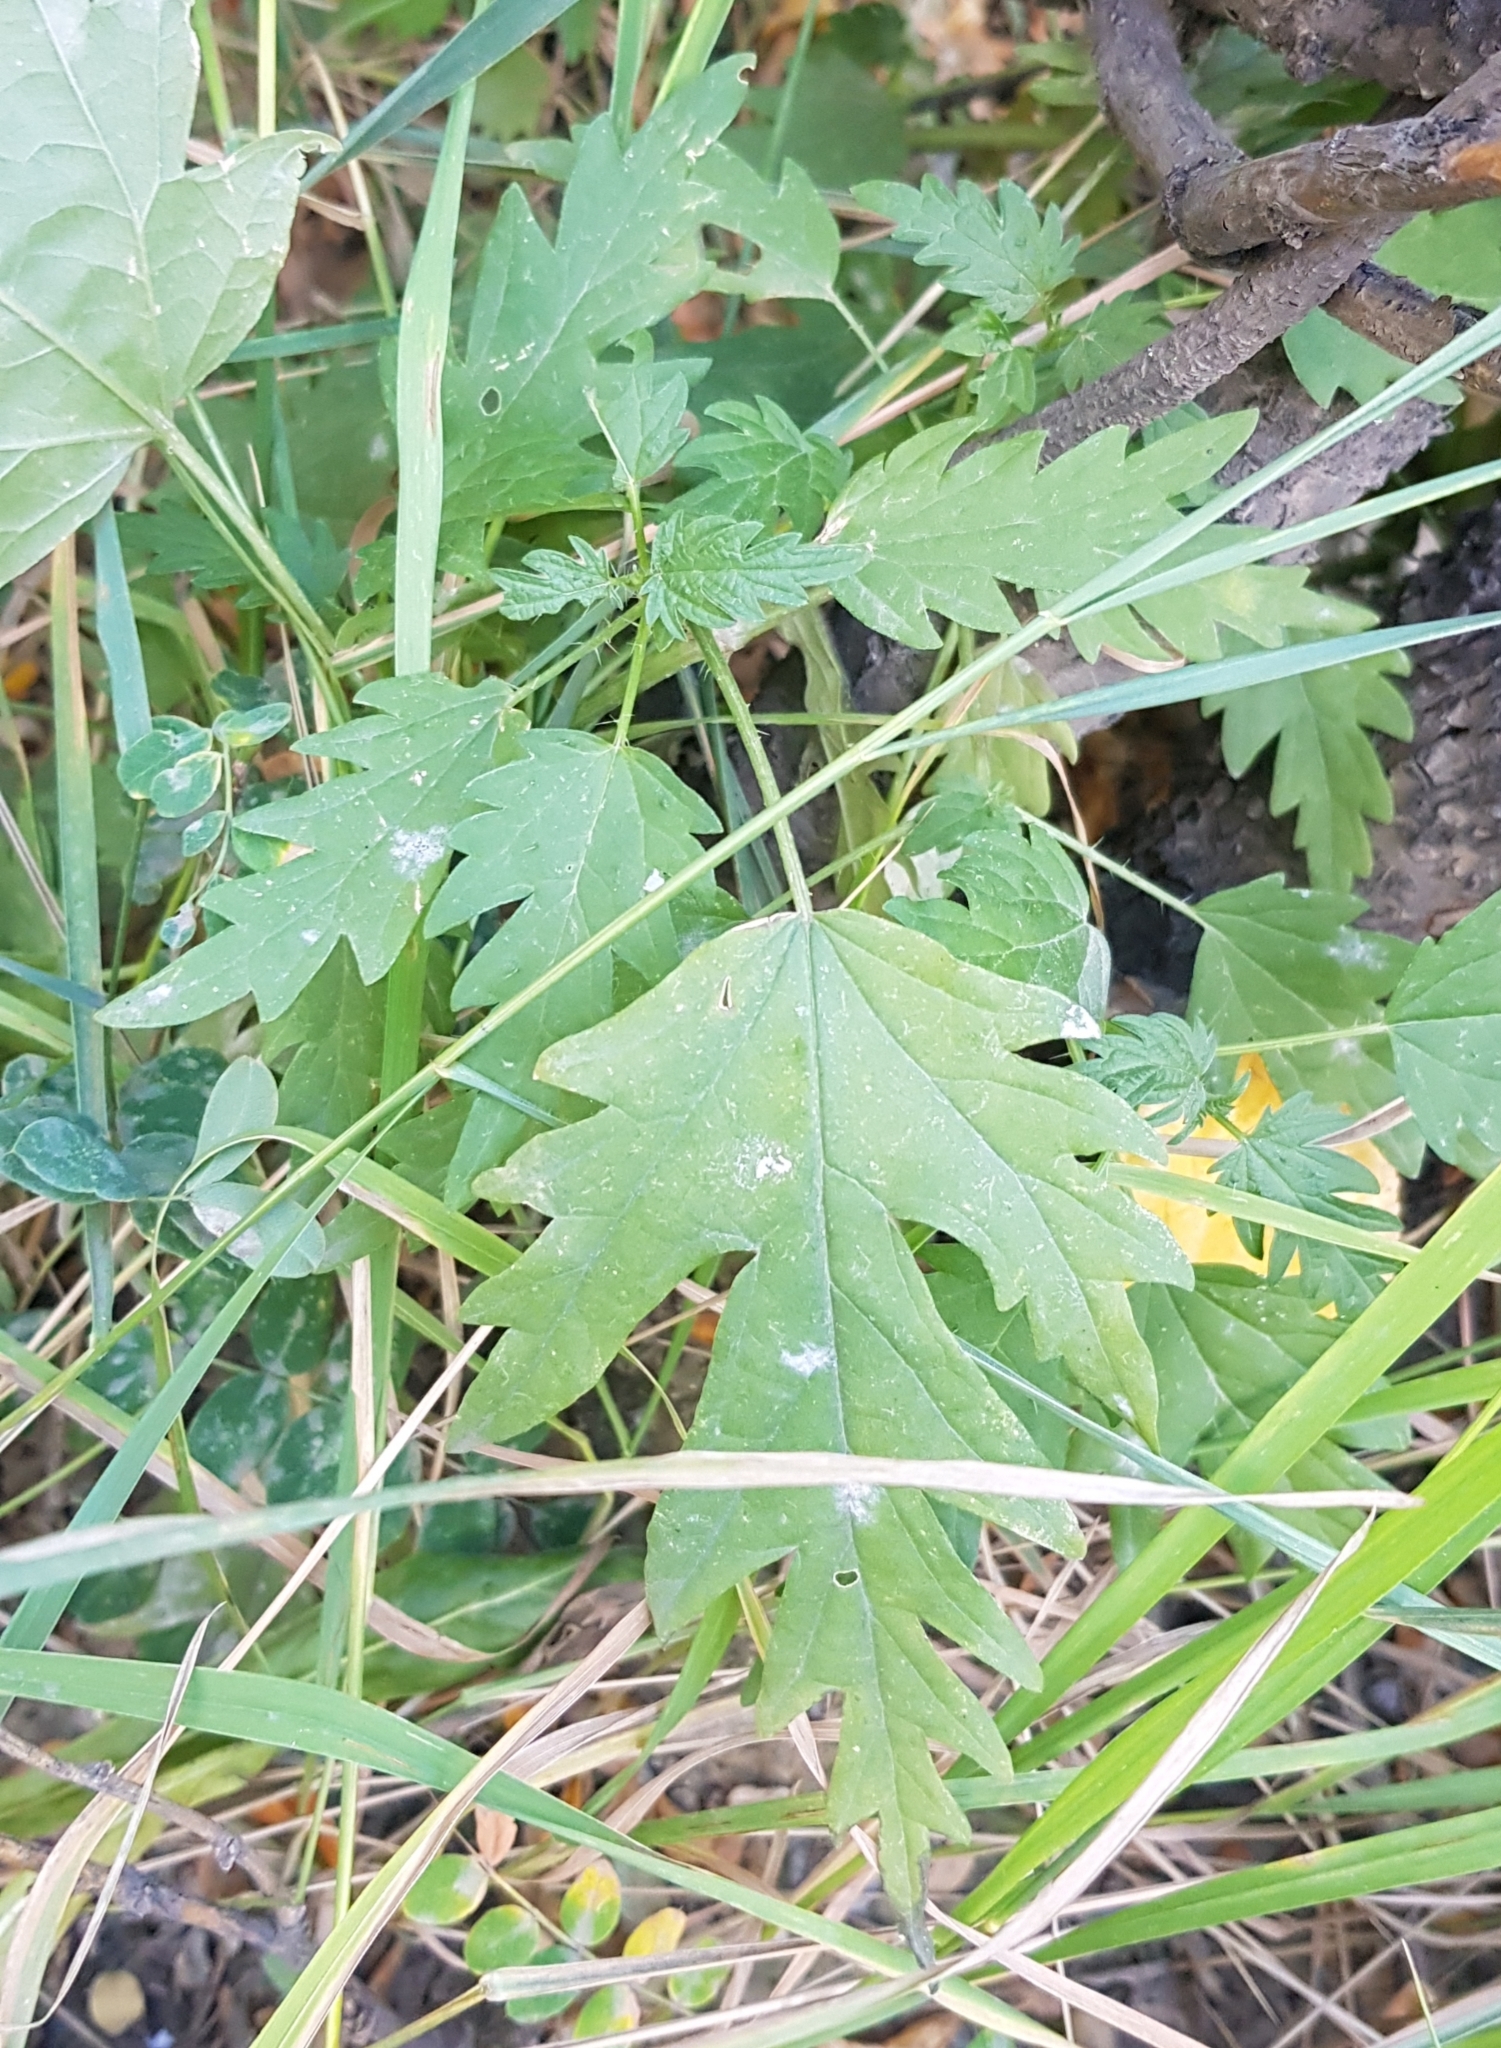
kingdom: Plantae
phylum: Tracheophyta
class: Magnoliopsida
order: Rosales
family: Urticaceae
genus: Urtica
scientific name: Urtica cannabina
